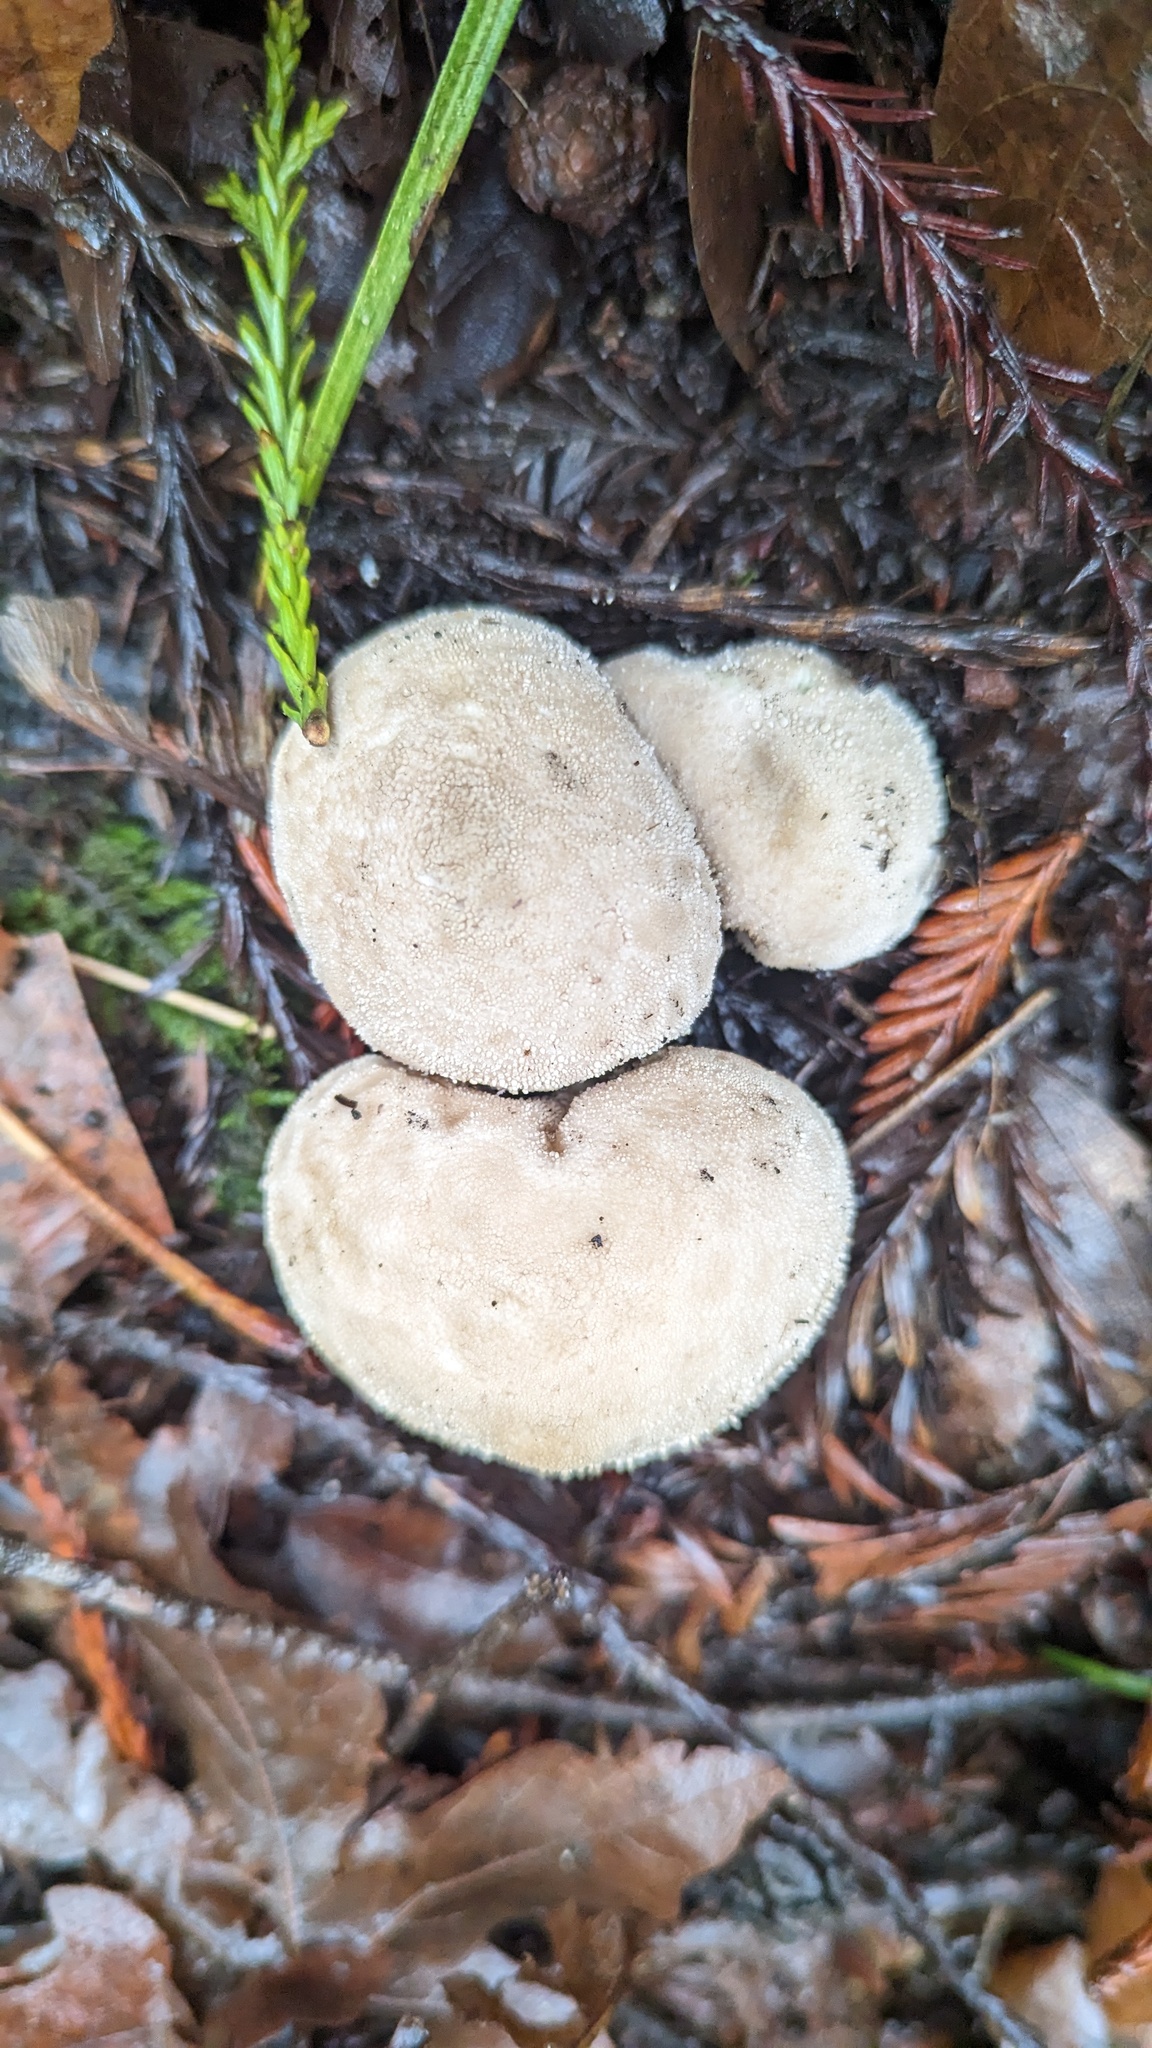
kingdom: Fungi
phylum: Basidiomycota
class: Agaricomycetes
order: Agaricales
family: Lycoperdaceae
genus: Lycoperdon
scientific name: Lycoperdon perlatum
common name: Common puffball
